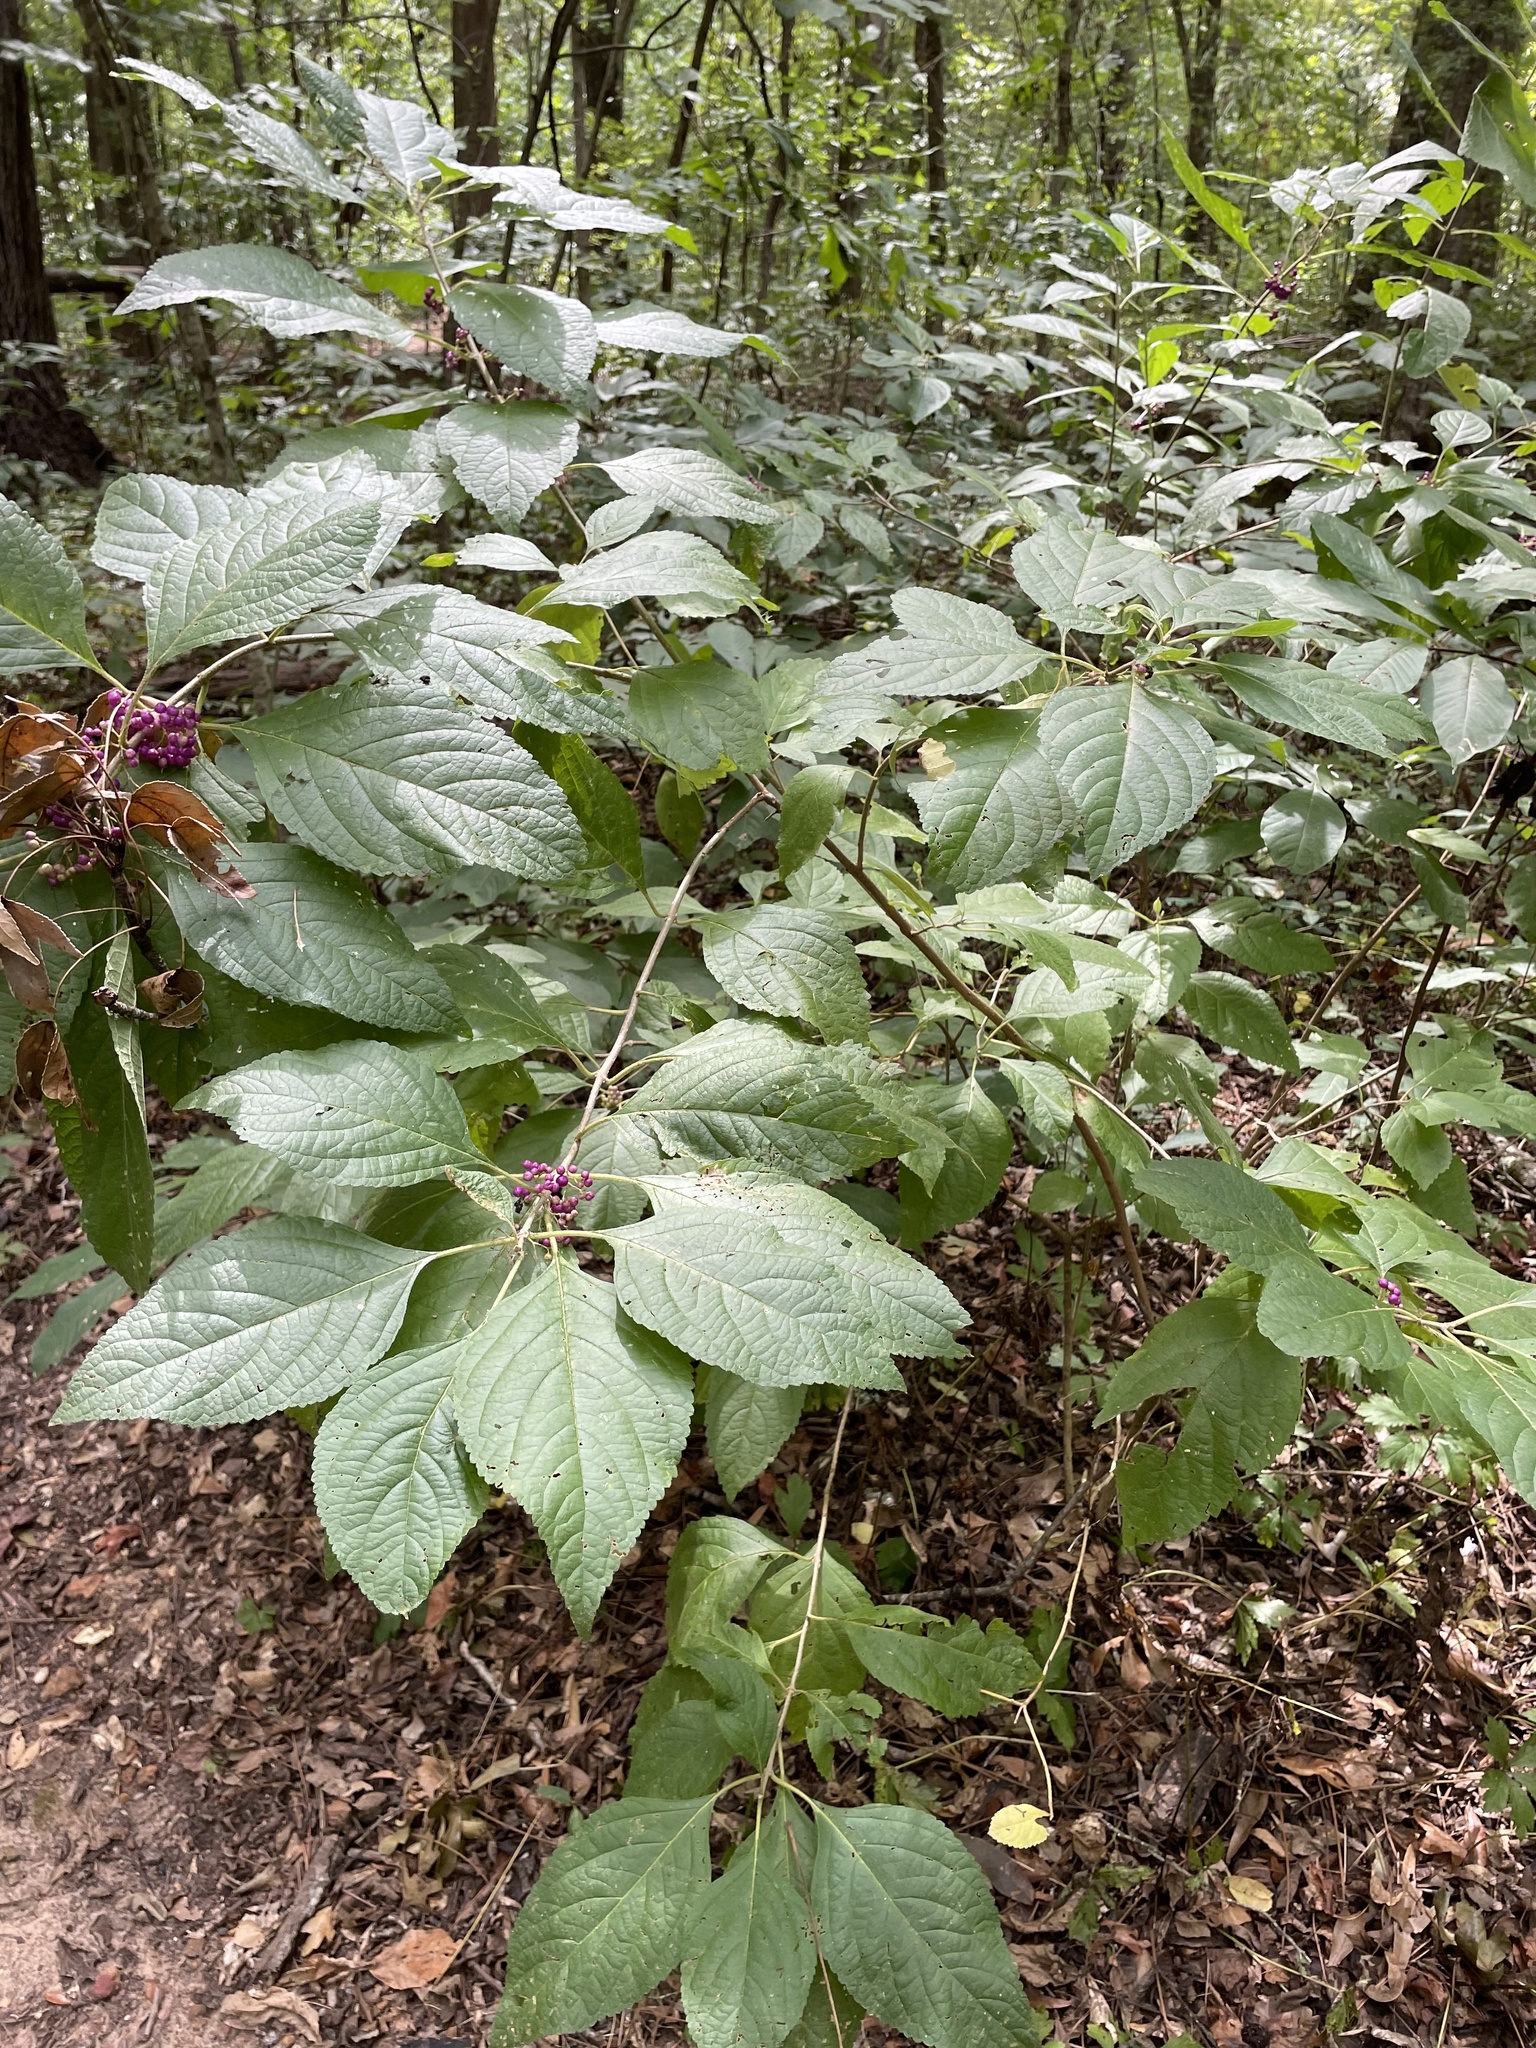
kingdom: Plantae
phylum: Tracheophyta
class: Magnoliopsida
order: Lamiales
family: Lamiaceae
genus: Callicarpa
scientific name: Callicarpa americana
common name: American beautyberry
